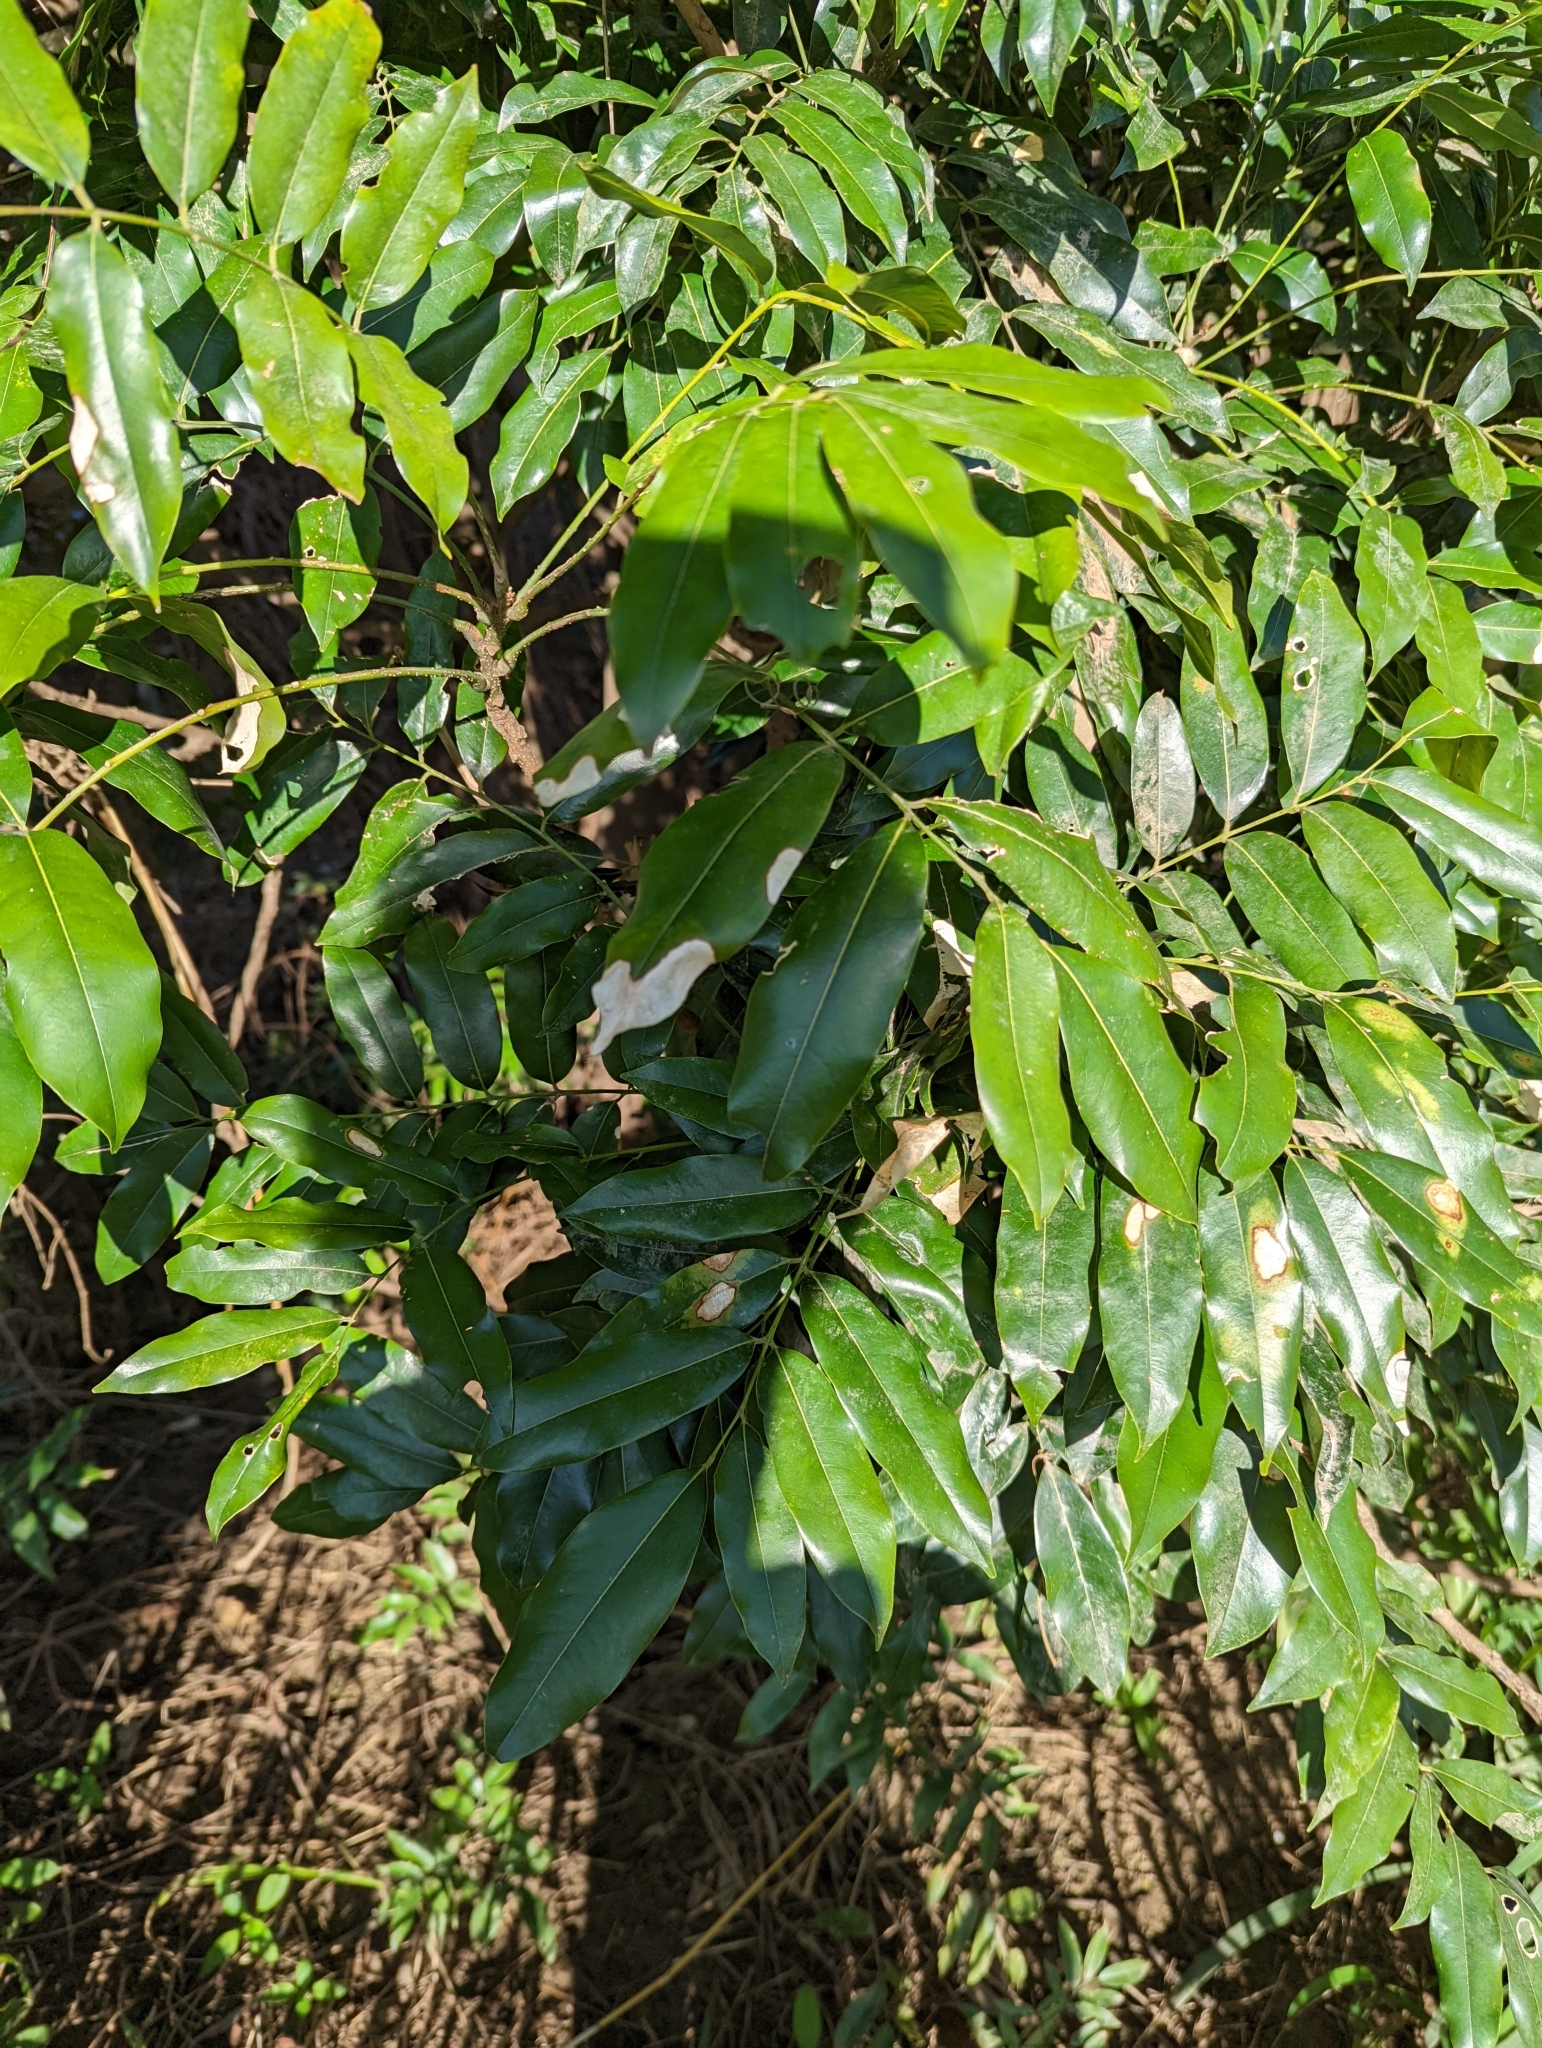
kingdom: Plantae
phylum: Tracheophyta
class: Magnoliopsida
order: Fabales
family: Fabaceae
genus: Castanospermum
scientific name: Castanospermum australe
